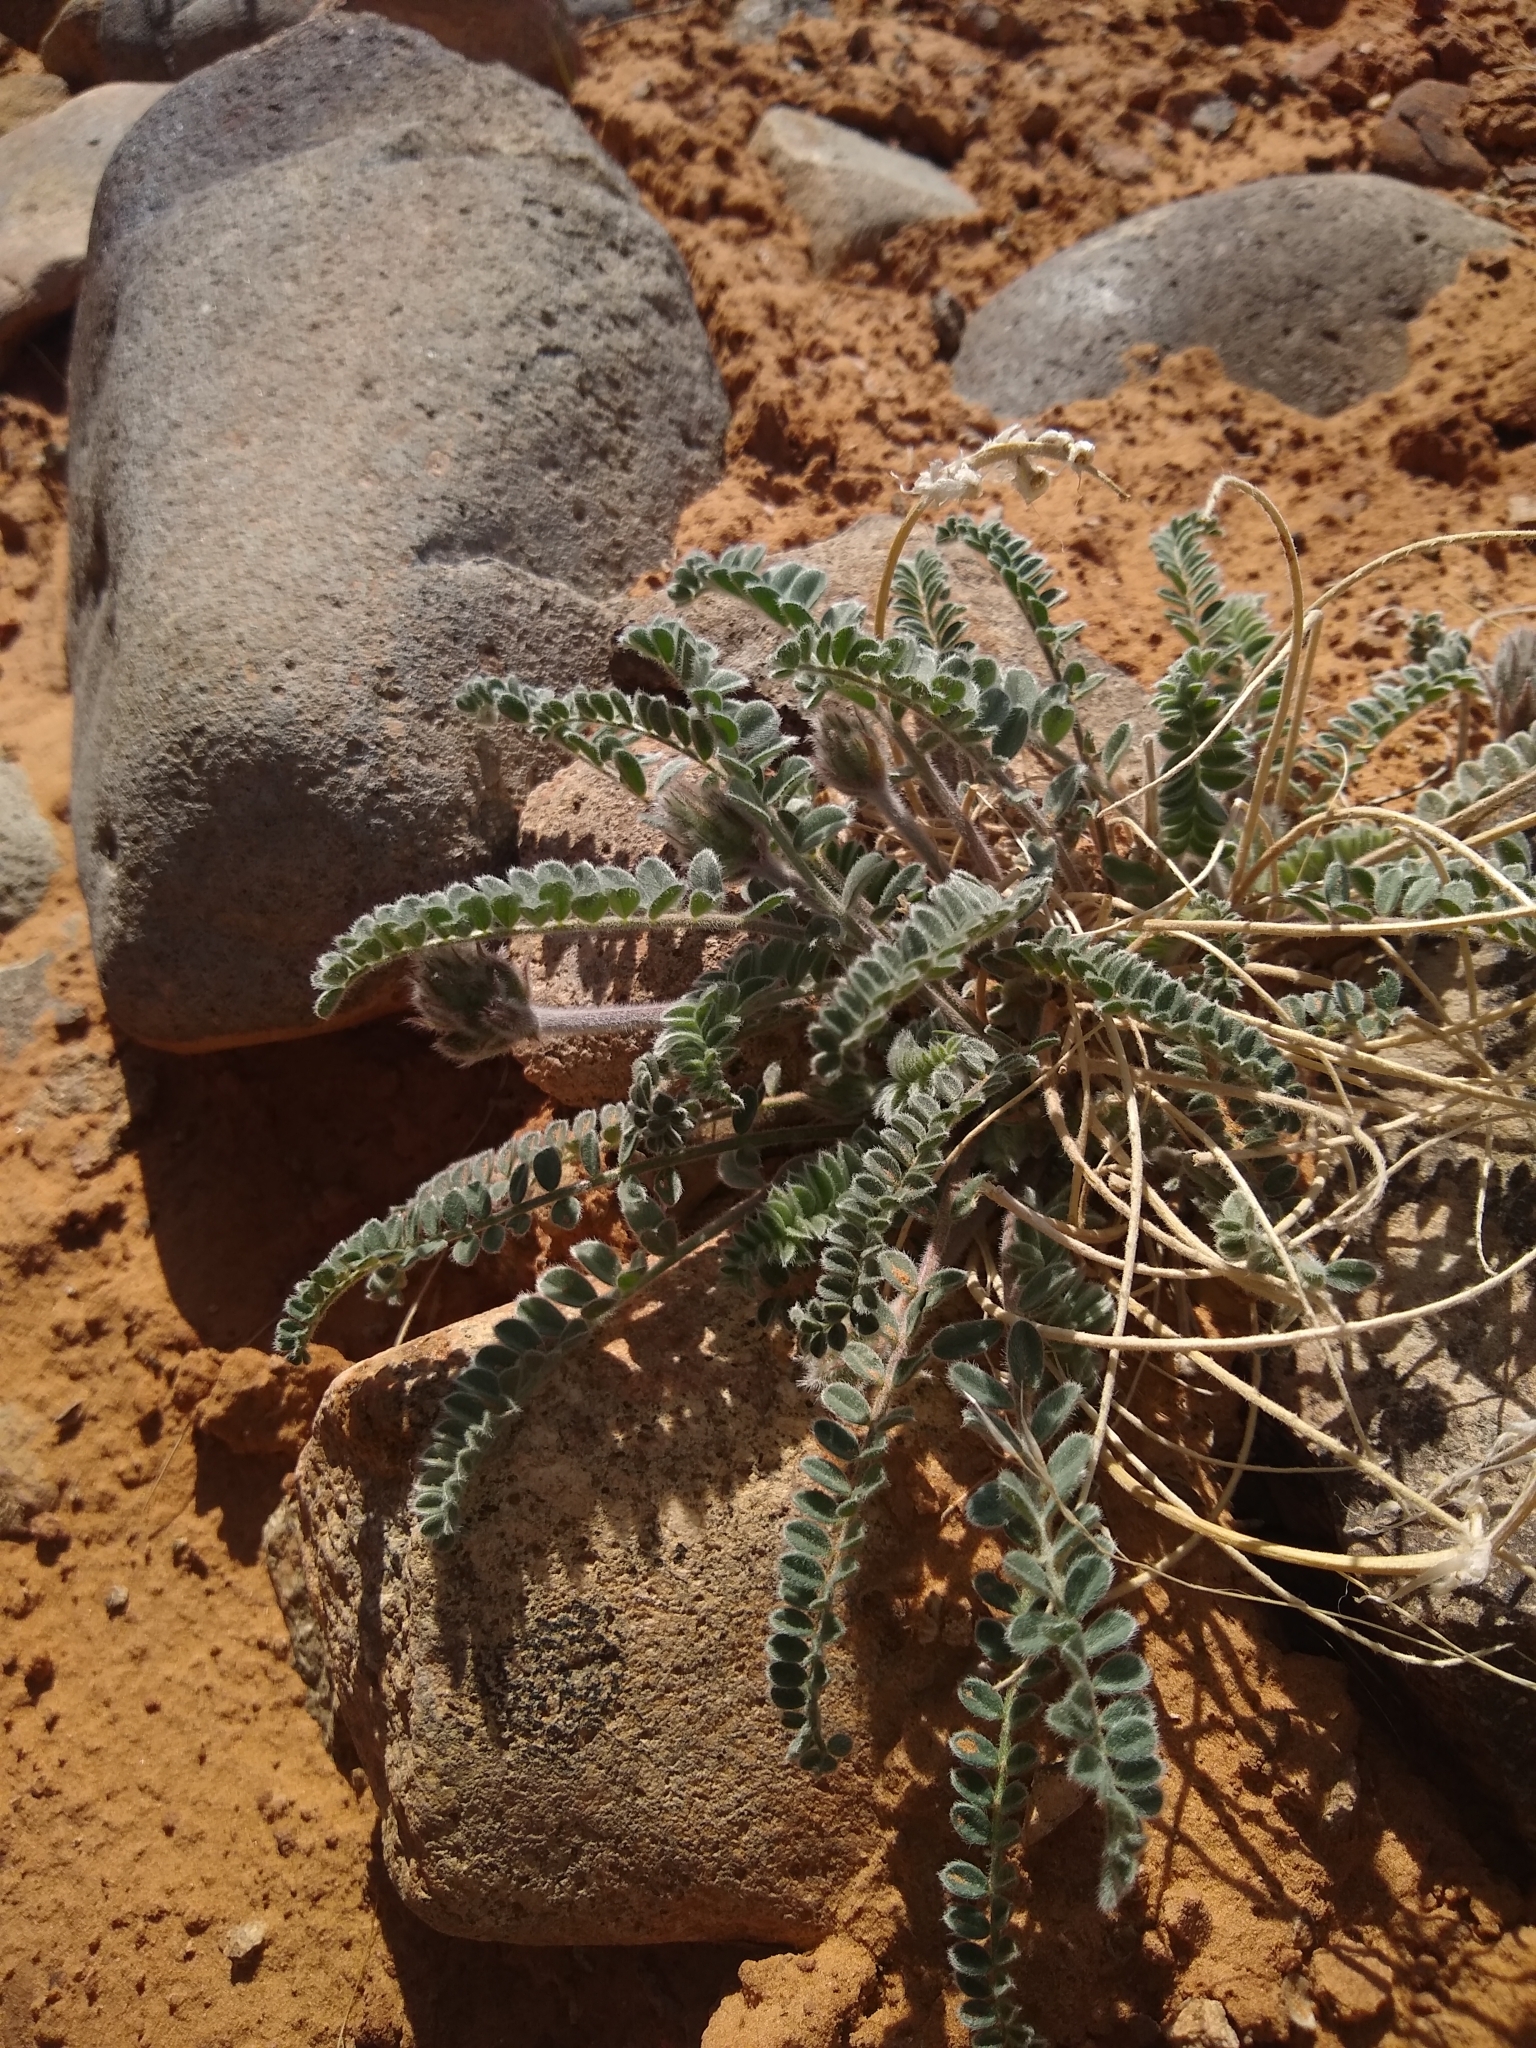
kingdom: Plantae
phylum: Tracheophyta
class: Magnoliopsida
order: Fabales
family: Fabaceae
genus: Astragalus
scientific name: Astragalus mollissimus
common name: Woolly locoweed
